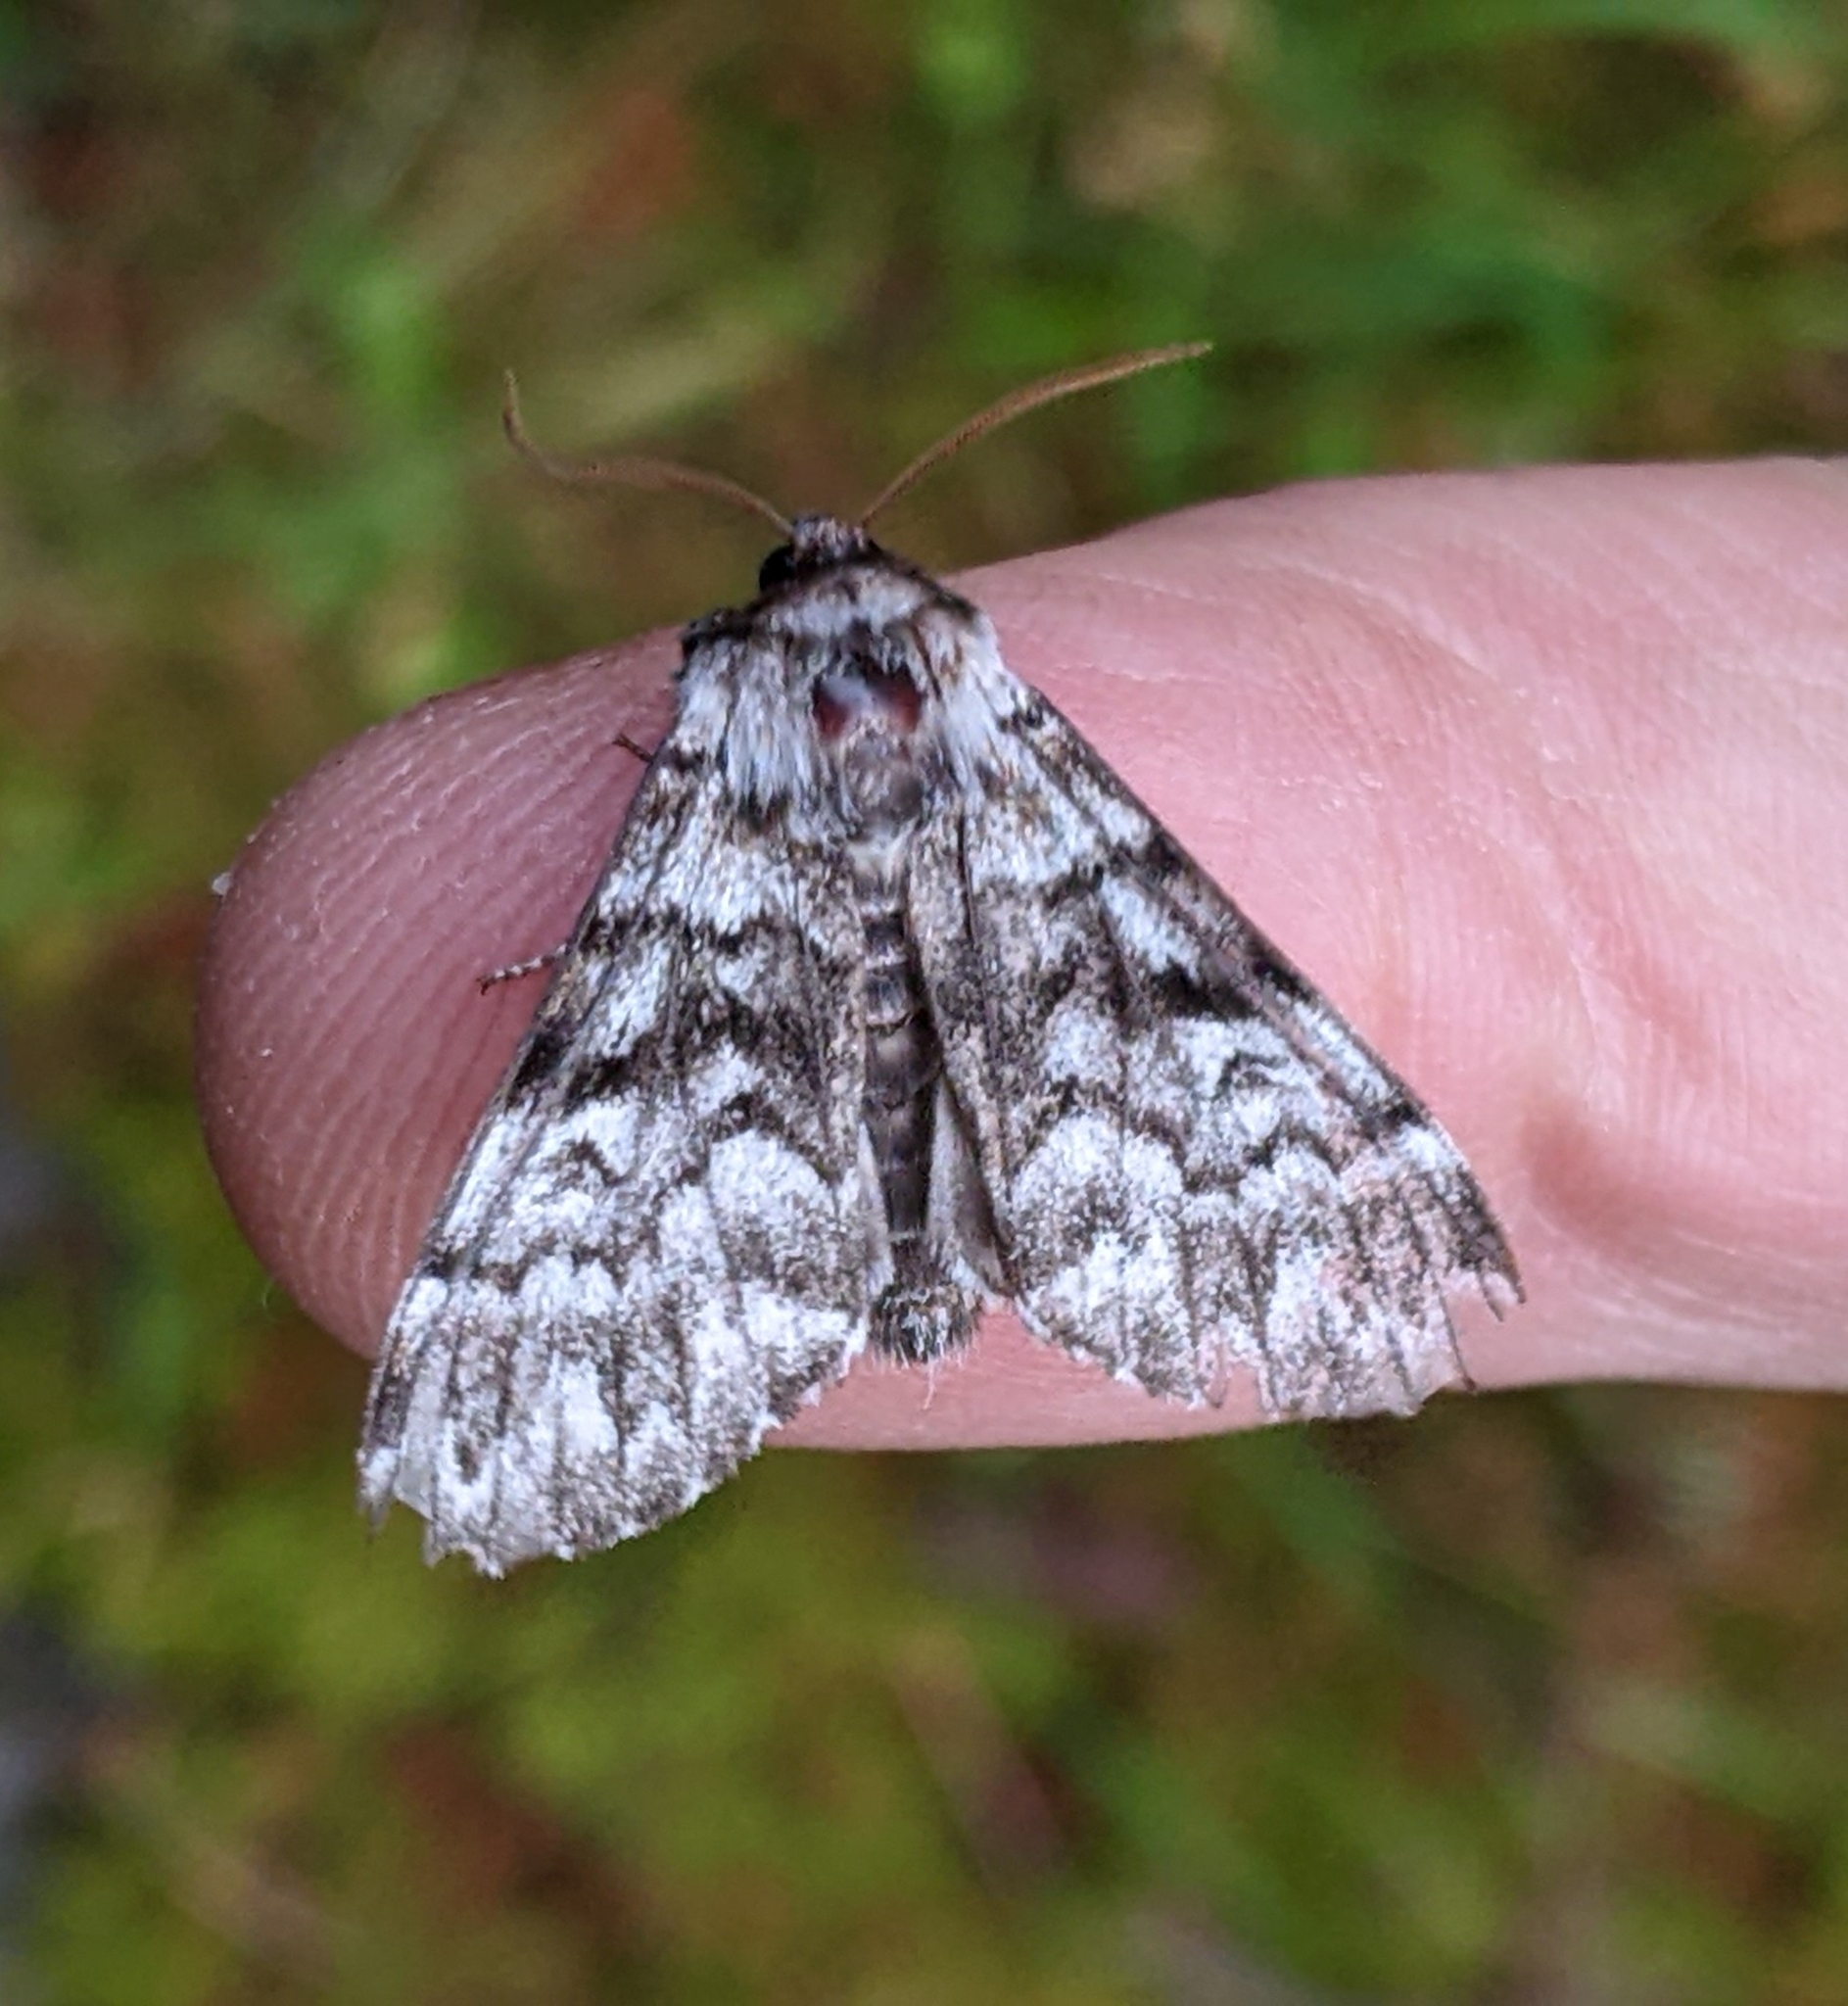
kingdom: Animalia
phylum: Arthropoda
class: Insecta
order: Lepidoptera
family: Noctuidae
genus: Panthea
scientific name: Panthea virginarius
